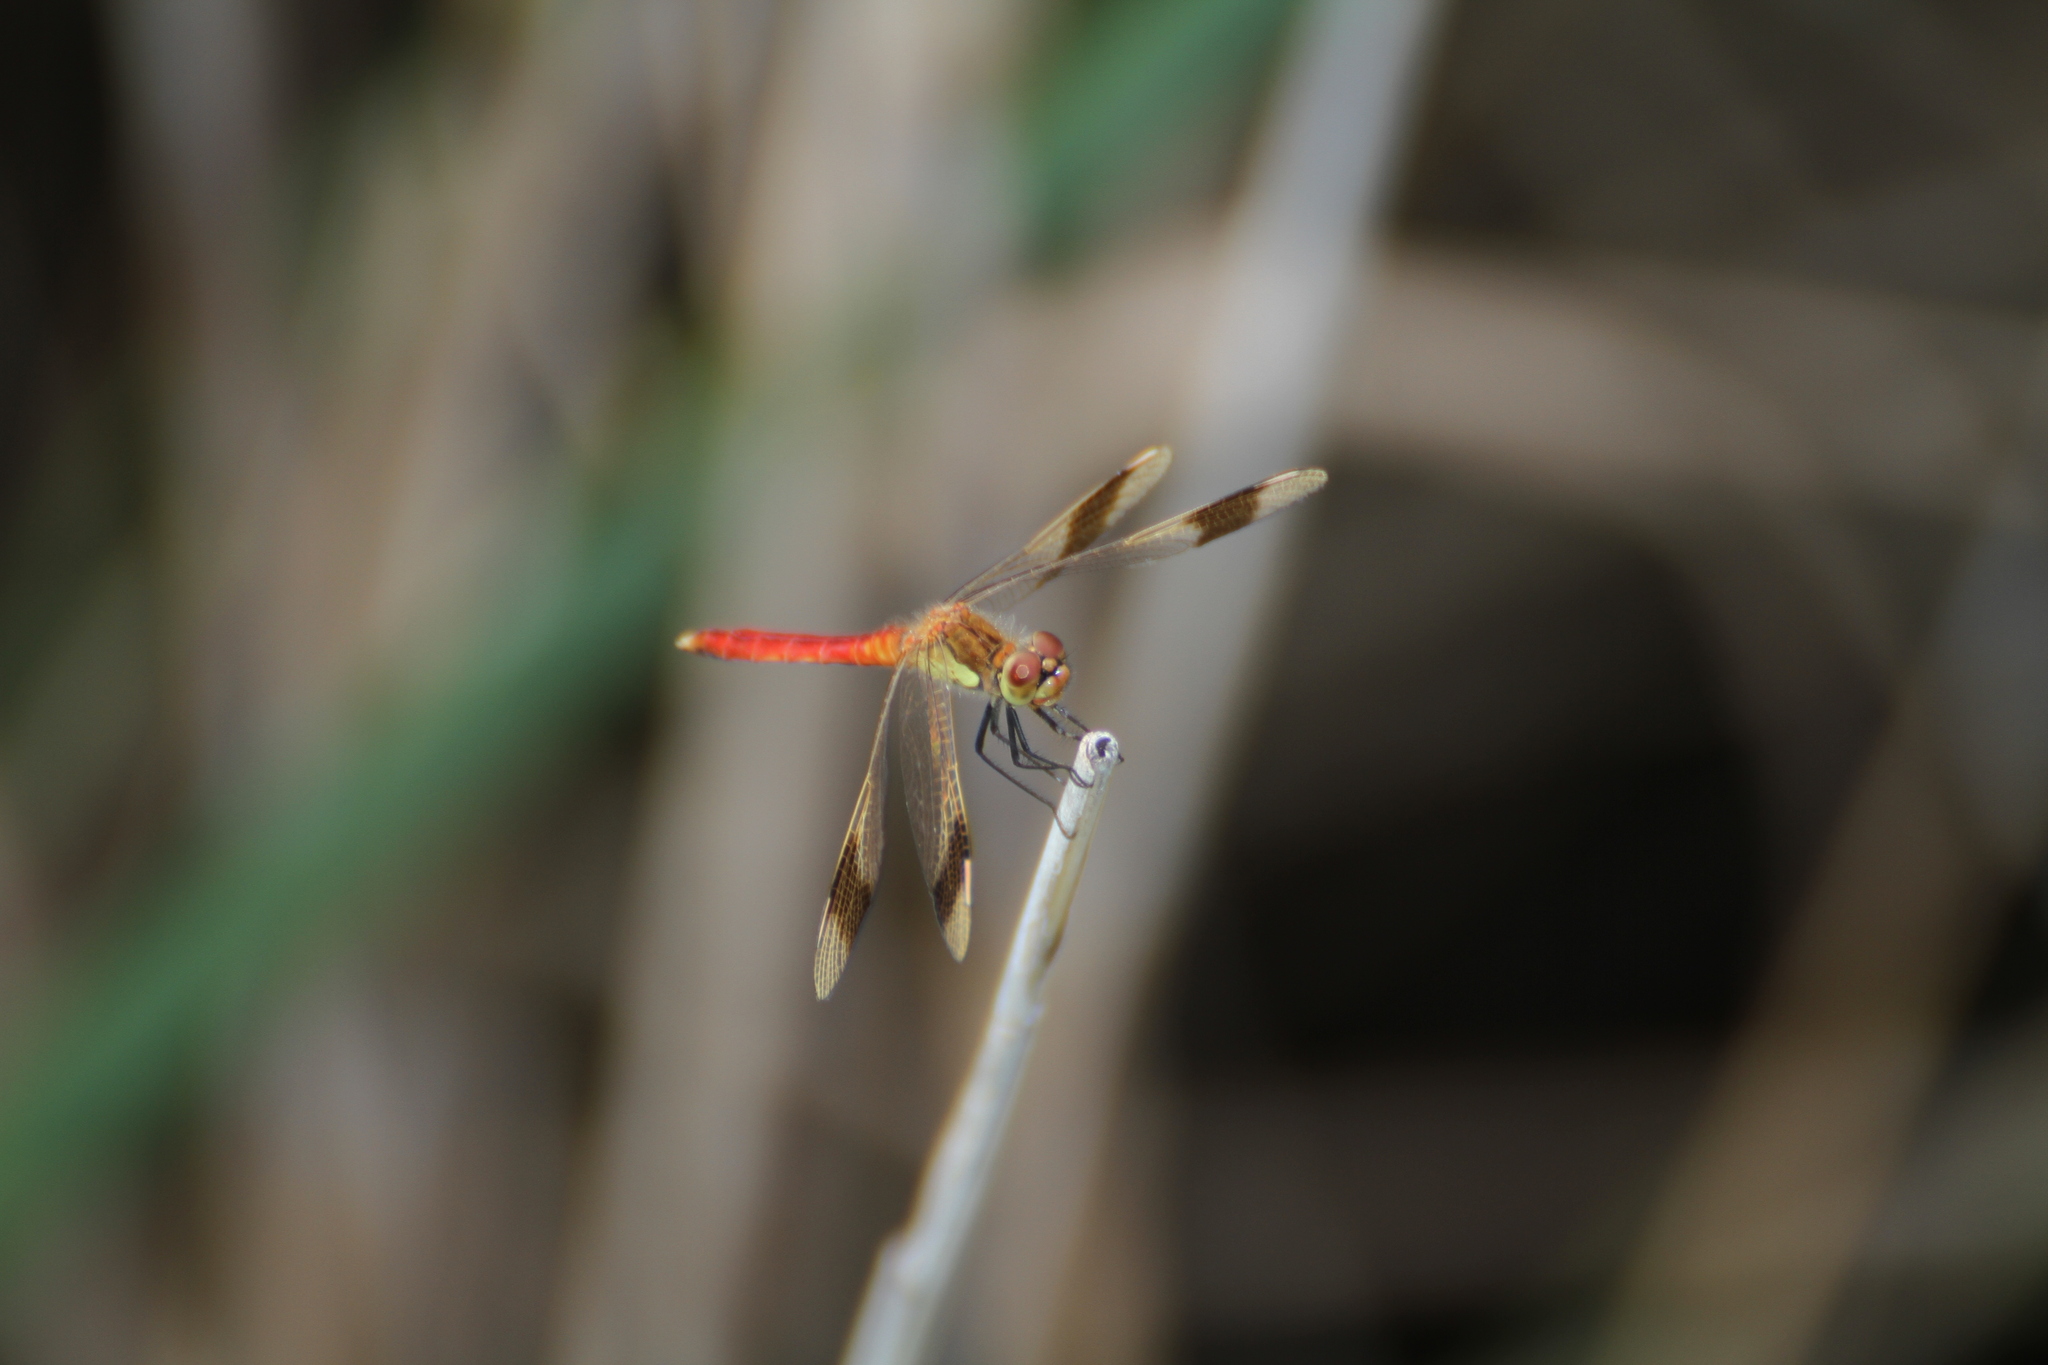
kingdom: Animalia
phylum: Arthropoda
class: Insecta
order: Odonata
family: Libellulidae
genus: Sympetrum
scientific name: Sympetrum pedemontanum
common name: Banded darter
